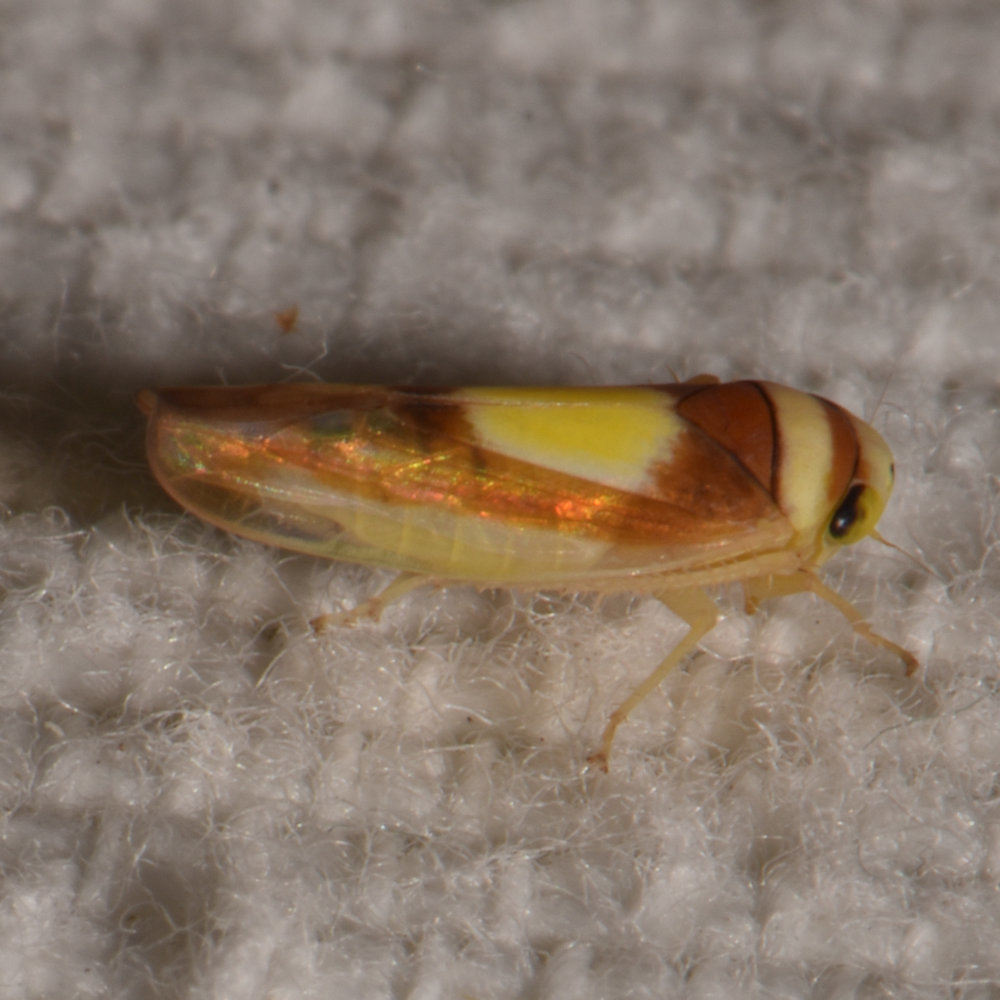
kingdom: Animalia
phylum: Arthropoda
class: Insecta
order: Hemiptera
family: Cicadellidae
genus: Colladonus
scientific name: Colladonus clitellarius
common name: The saddleback leafhopper
